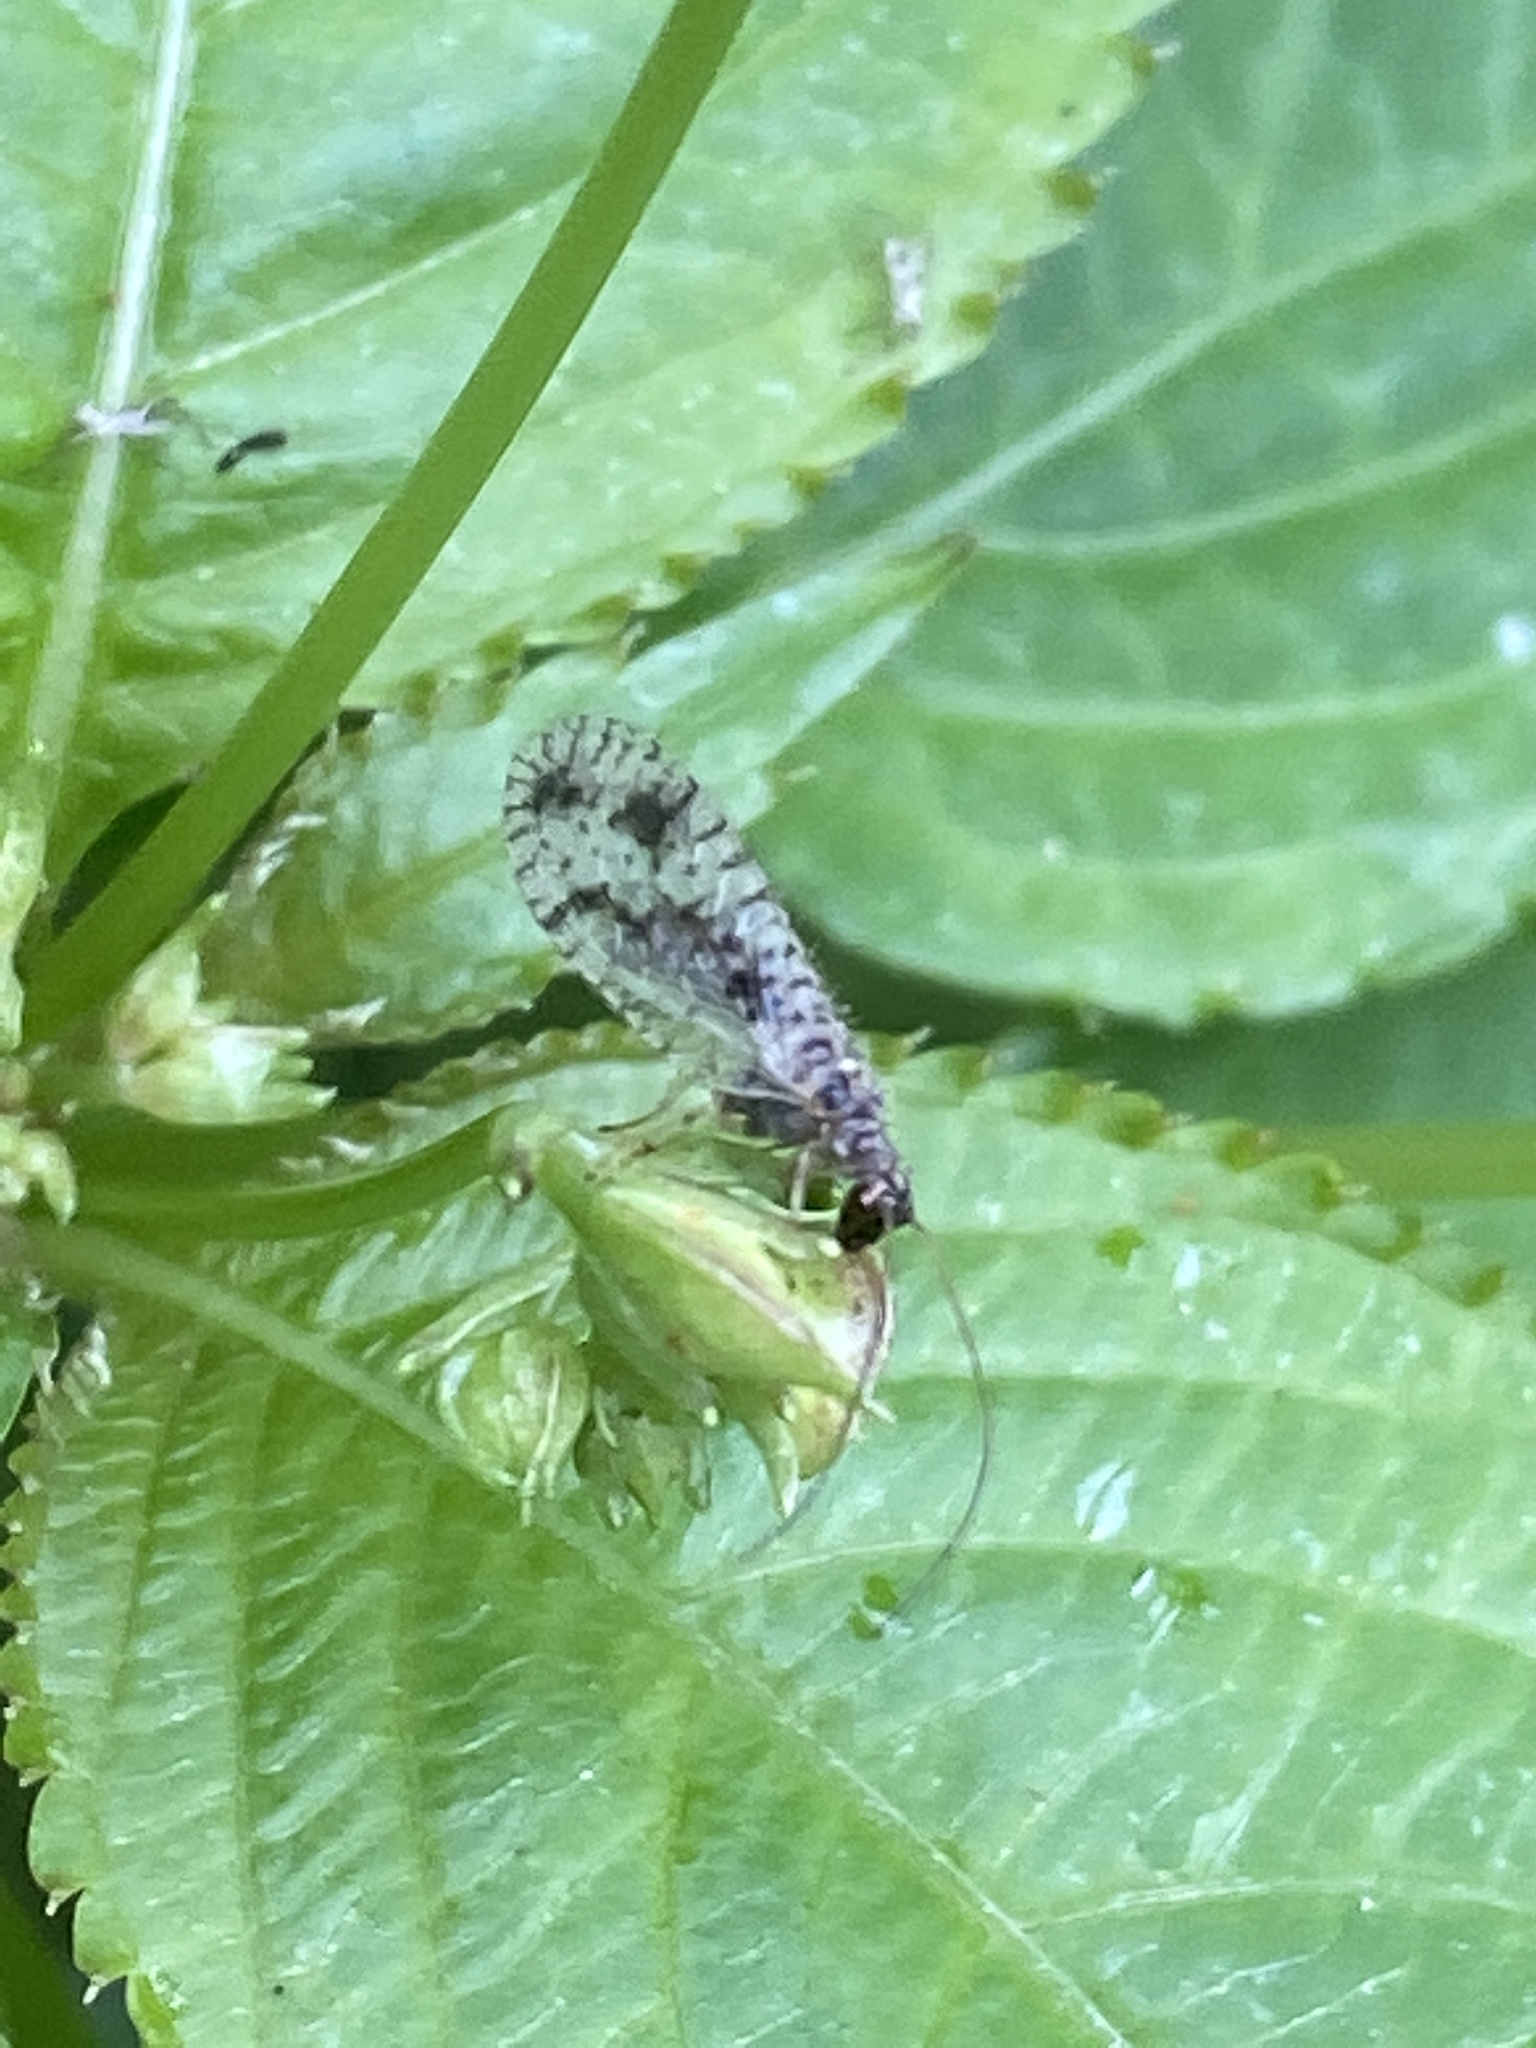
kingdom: Animalia
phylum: Arthropoda
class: Insecta
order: Neuroptera
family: Hemerobiidae
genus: Micromus
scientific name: Micromus variegatus
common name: Brown lacewing
